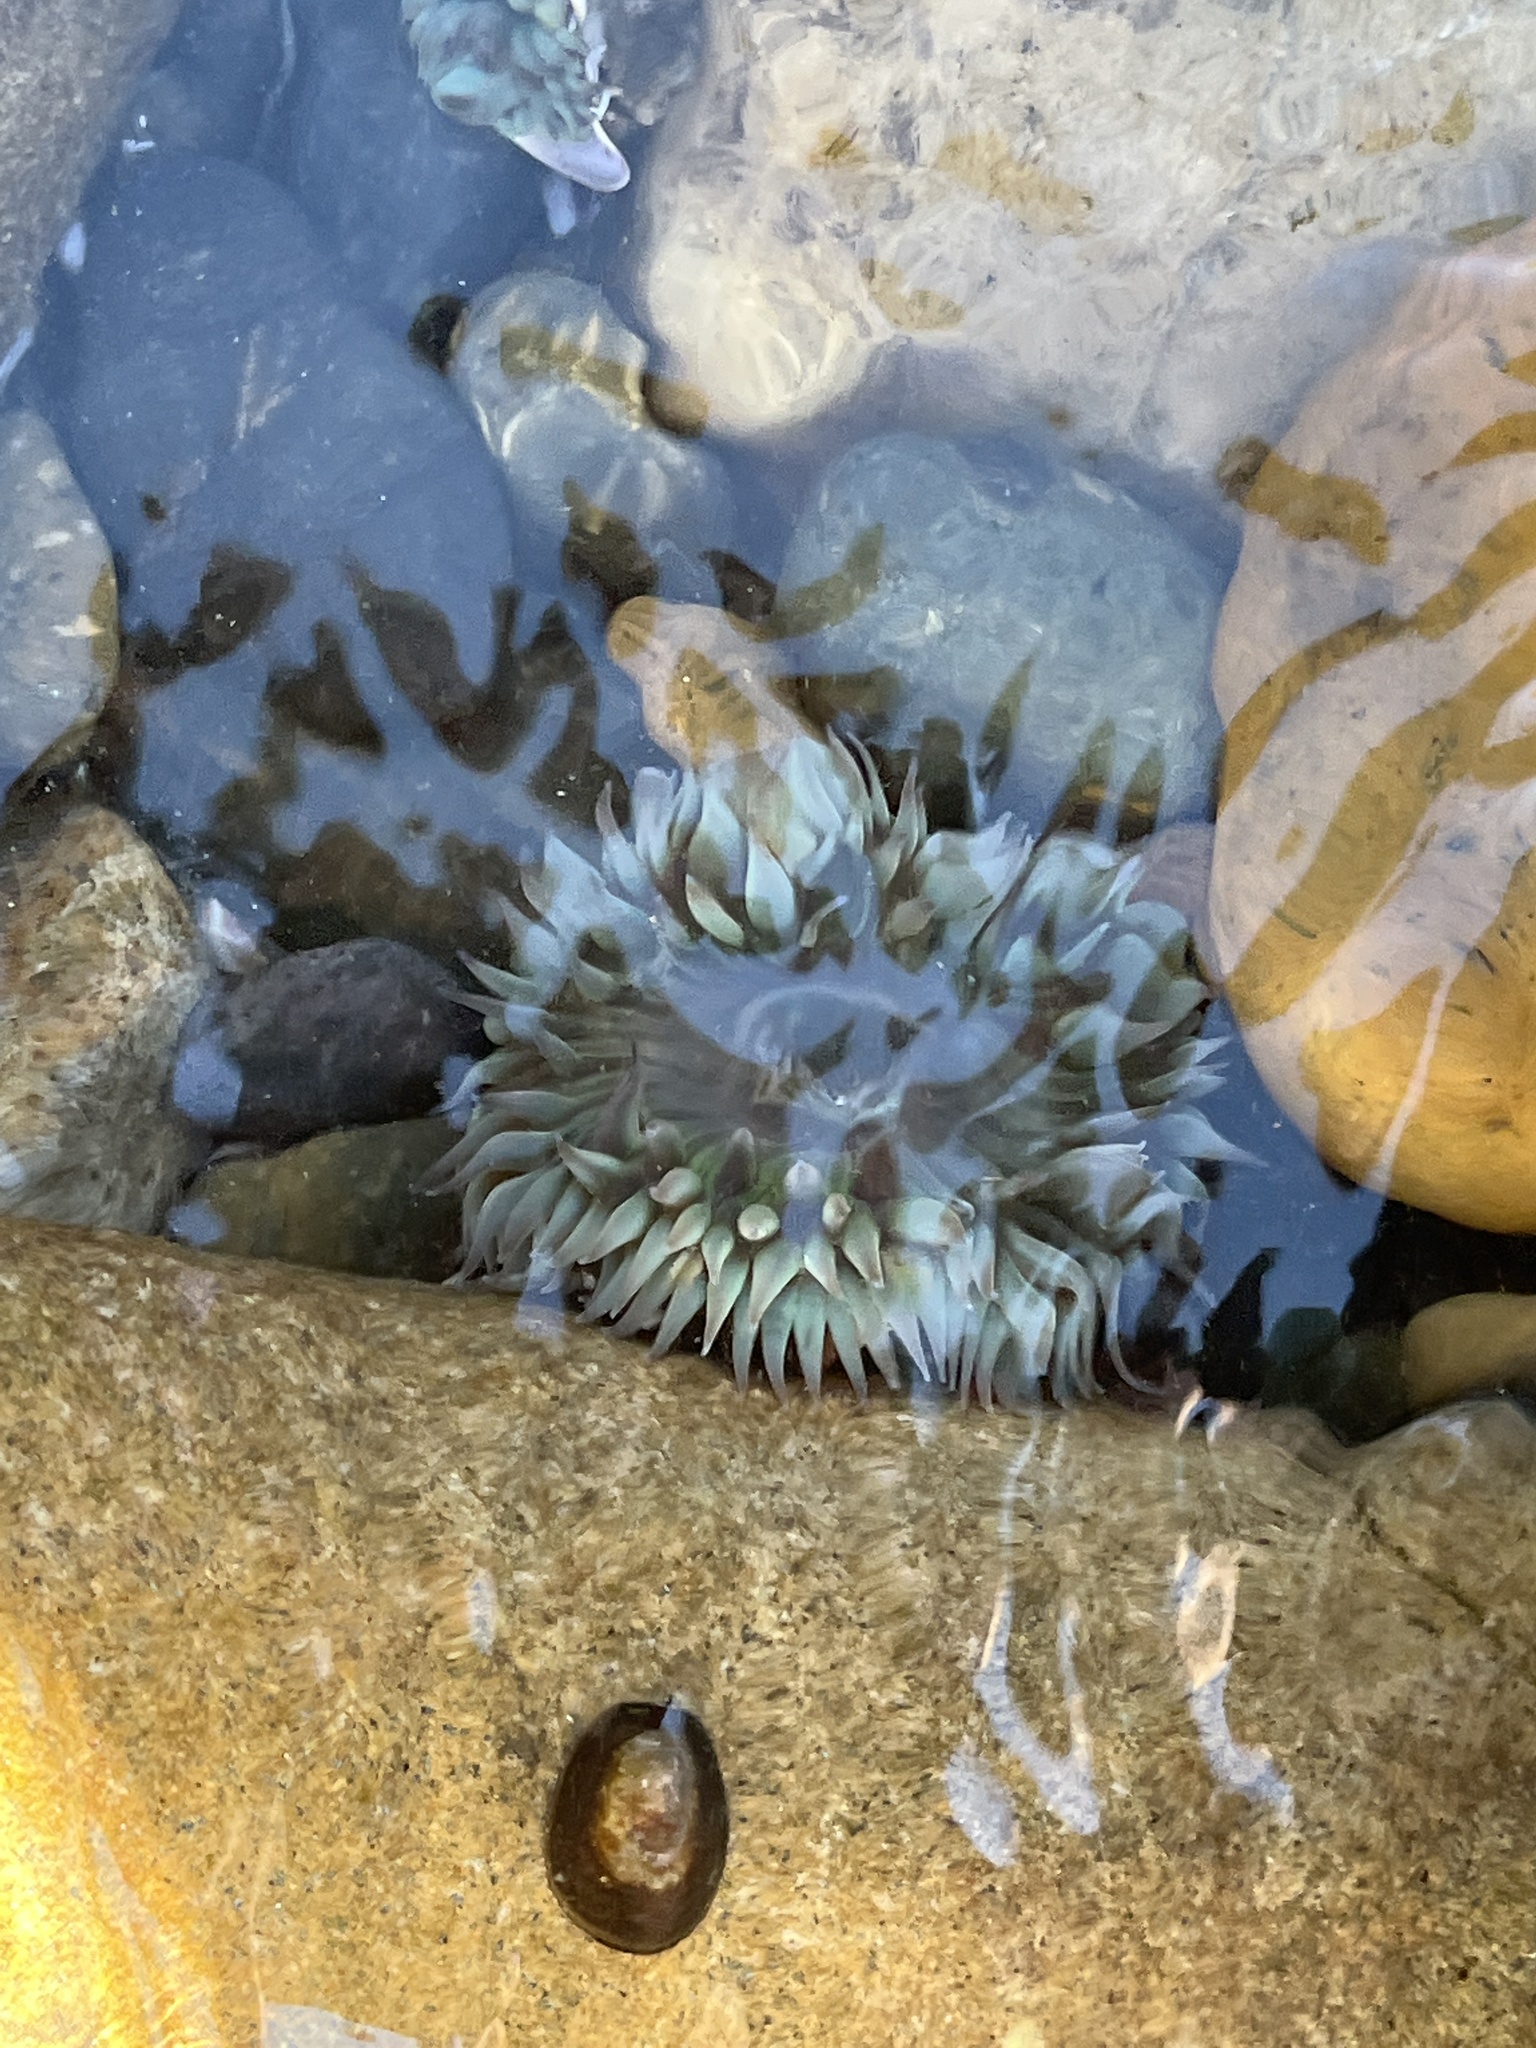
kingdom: Animalia
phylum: Cnidaria
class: Anthozoa
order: Actiniaria
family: Actiniidae
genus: Anthopleura
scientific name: Anthopleura sola
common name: Sun anemone
